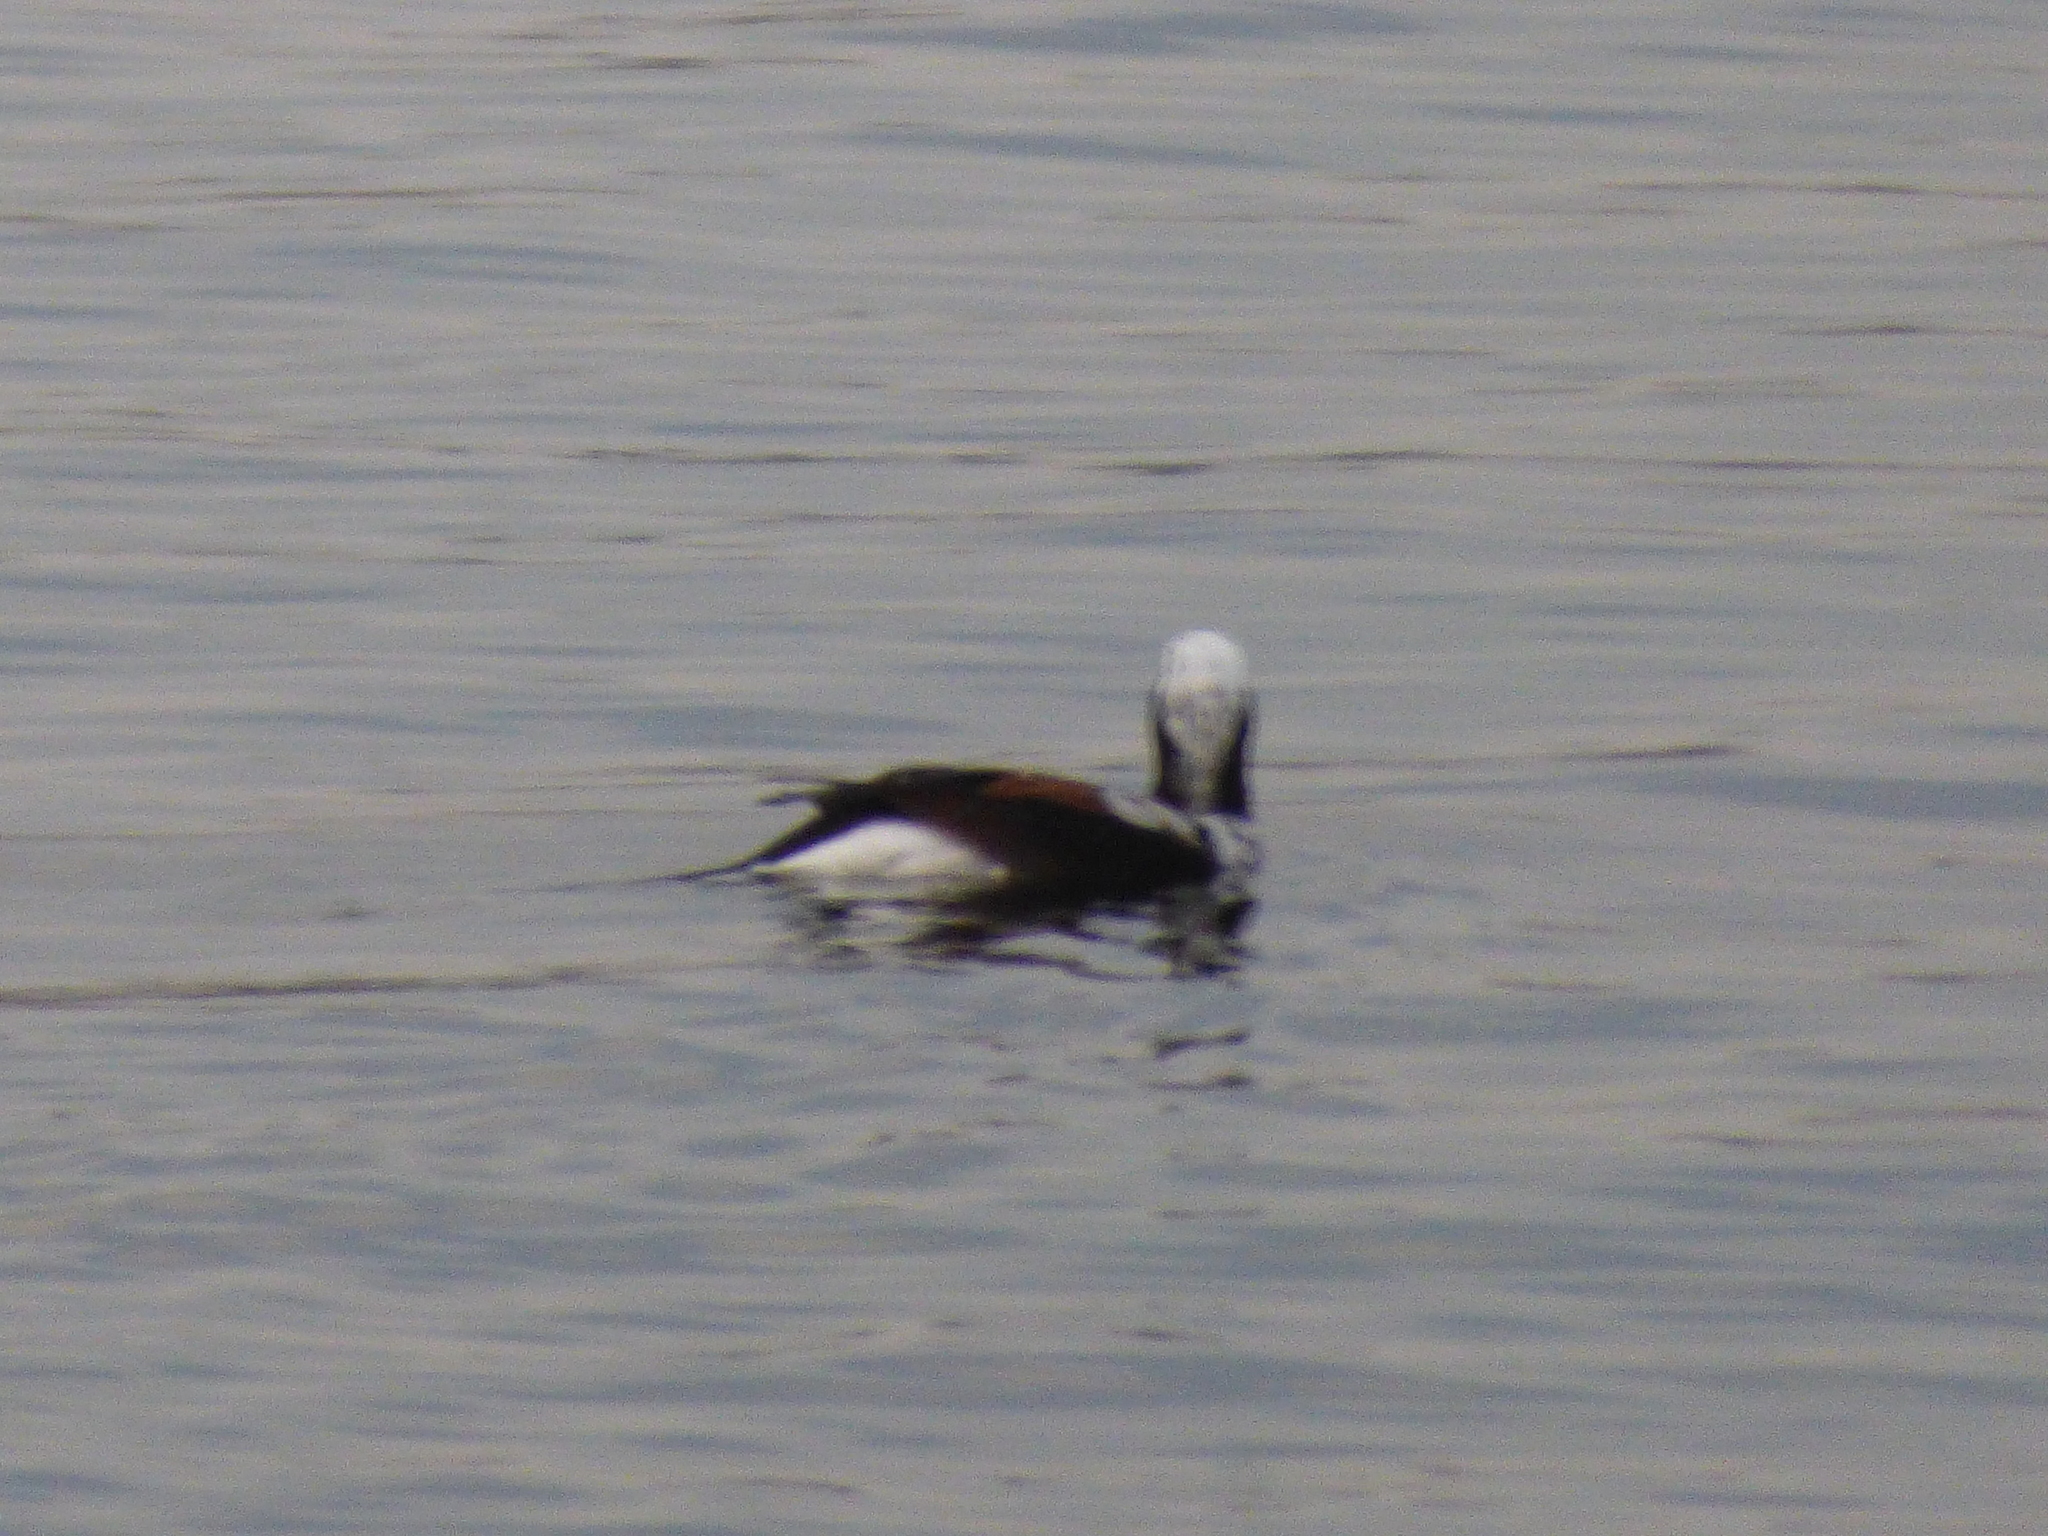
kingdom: Animalia
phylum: Chordata
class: Aves
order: Anseriformes
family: Anatidae
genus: Clangula
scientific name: Clangula hyemalis
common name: Long-tailed duck
